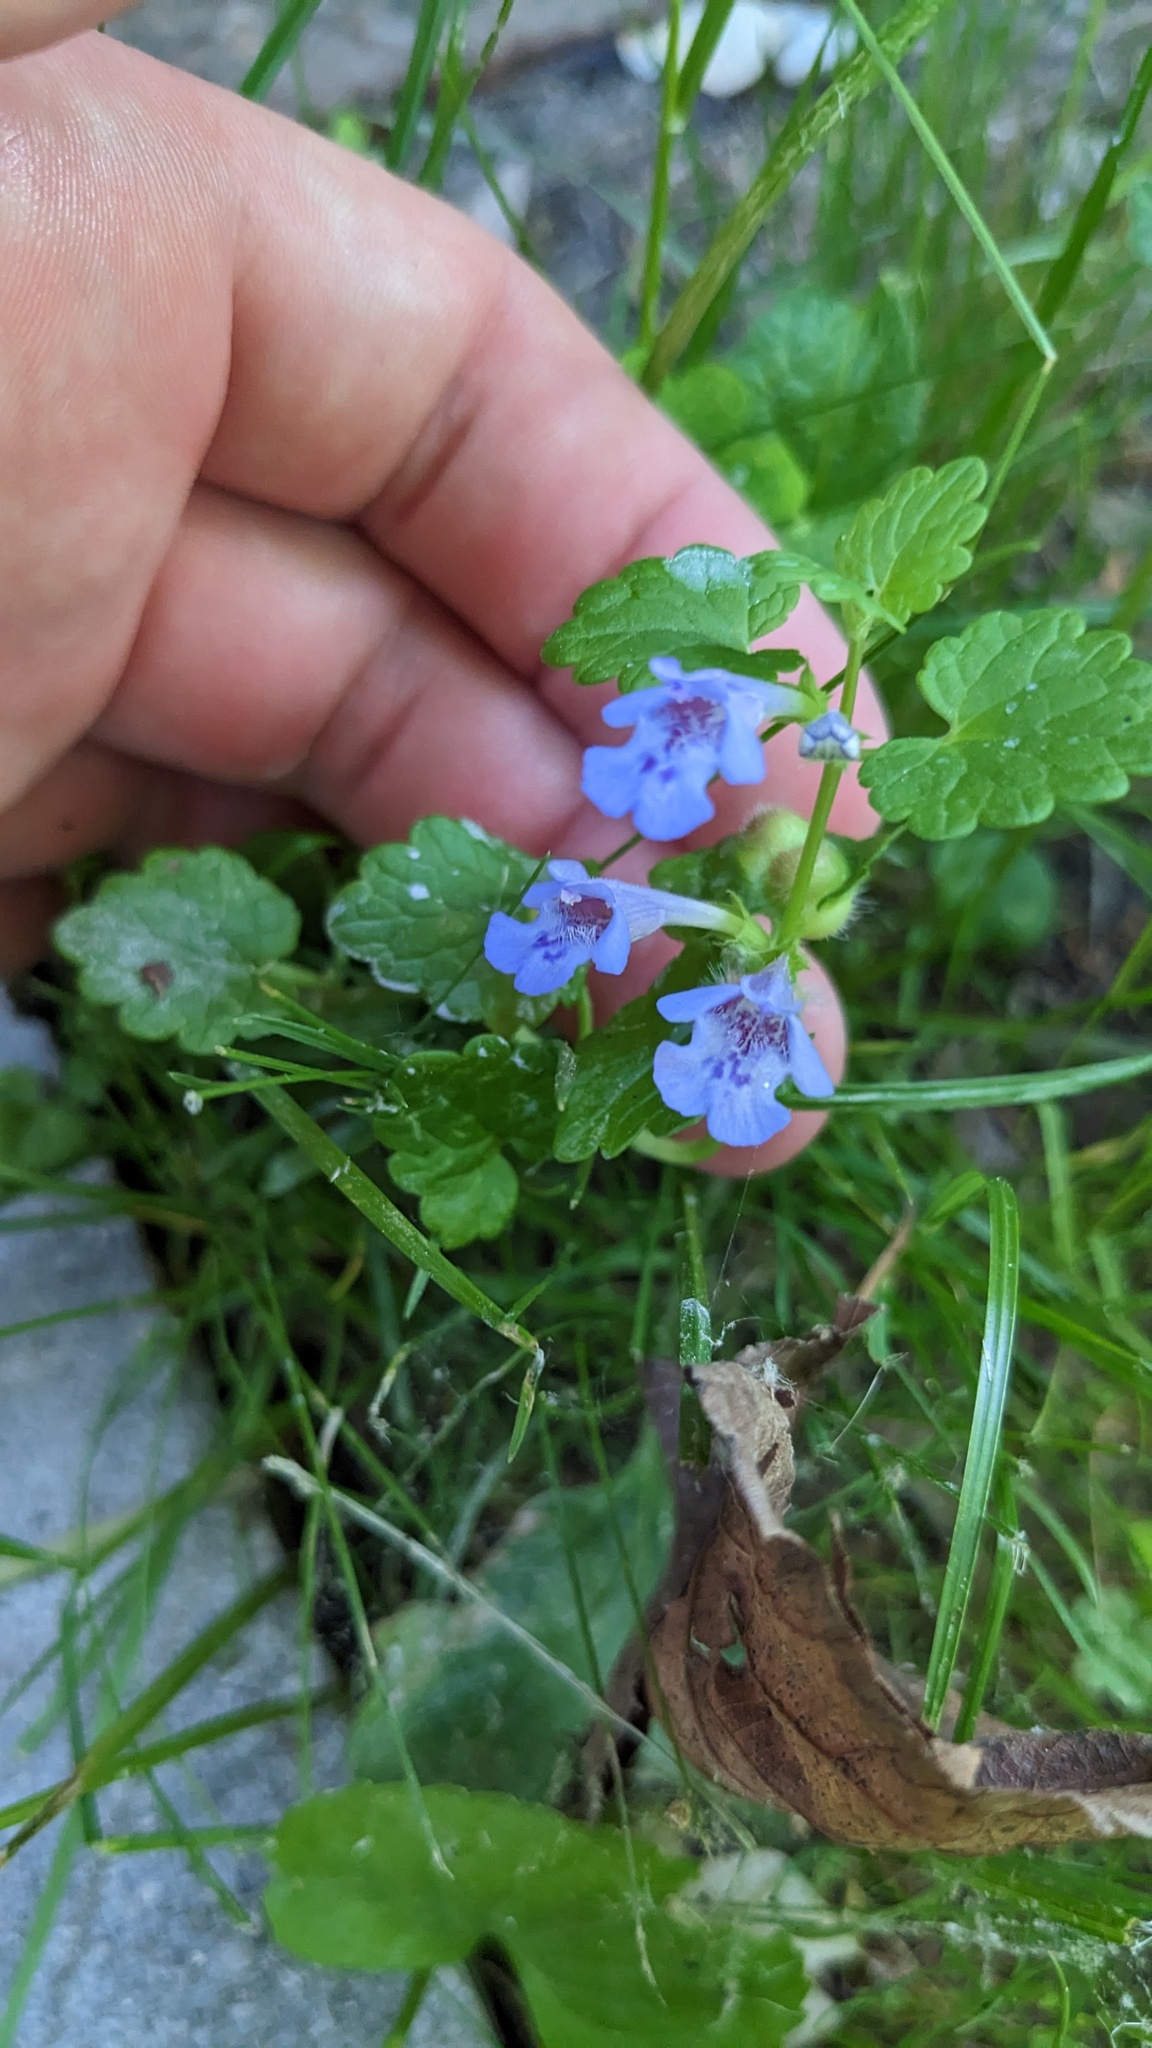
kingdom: Plantae
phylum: Tracheophyta
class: Magnoliopsida
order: Lamiales
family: Lamiaceae
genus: Glechoma
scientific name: Glechoma hederacea
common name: Ground ivy
